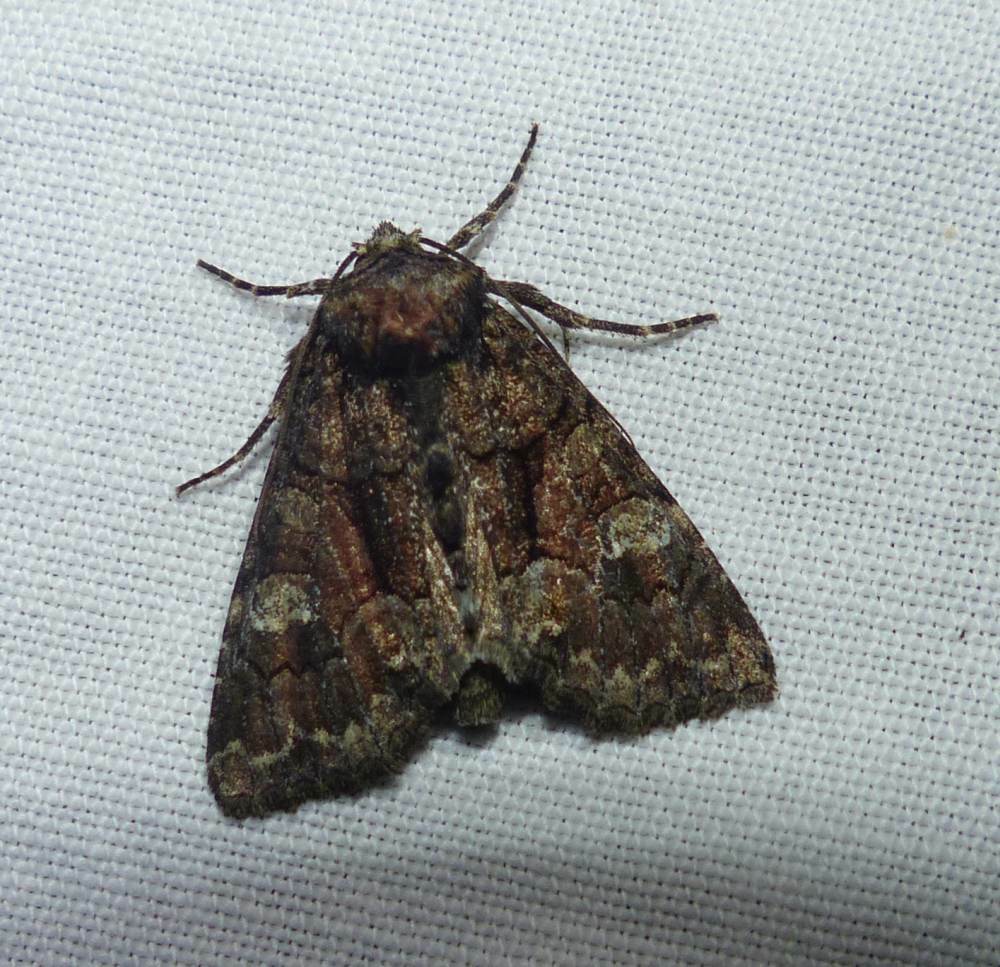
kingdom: Animalia
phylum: Arthropoda
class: Insecta
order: Lepidoptera
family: Noctuidae
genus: Fishia
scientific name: Fishia illocata
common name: Wandering brocade moth
